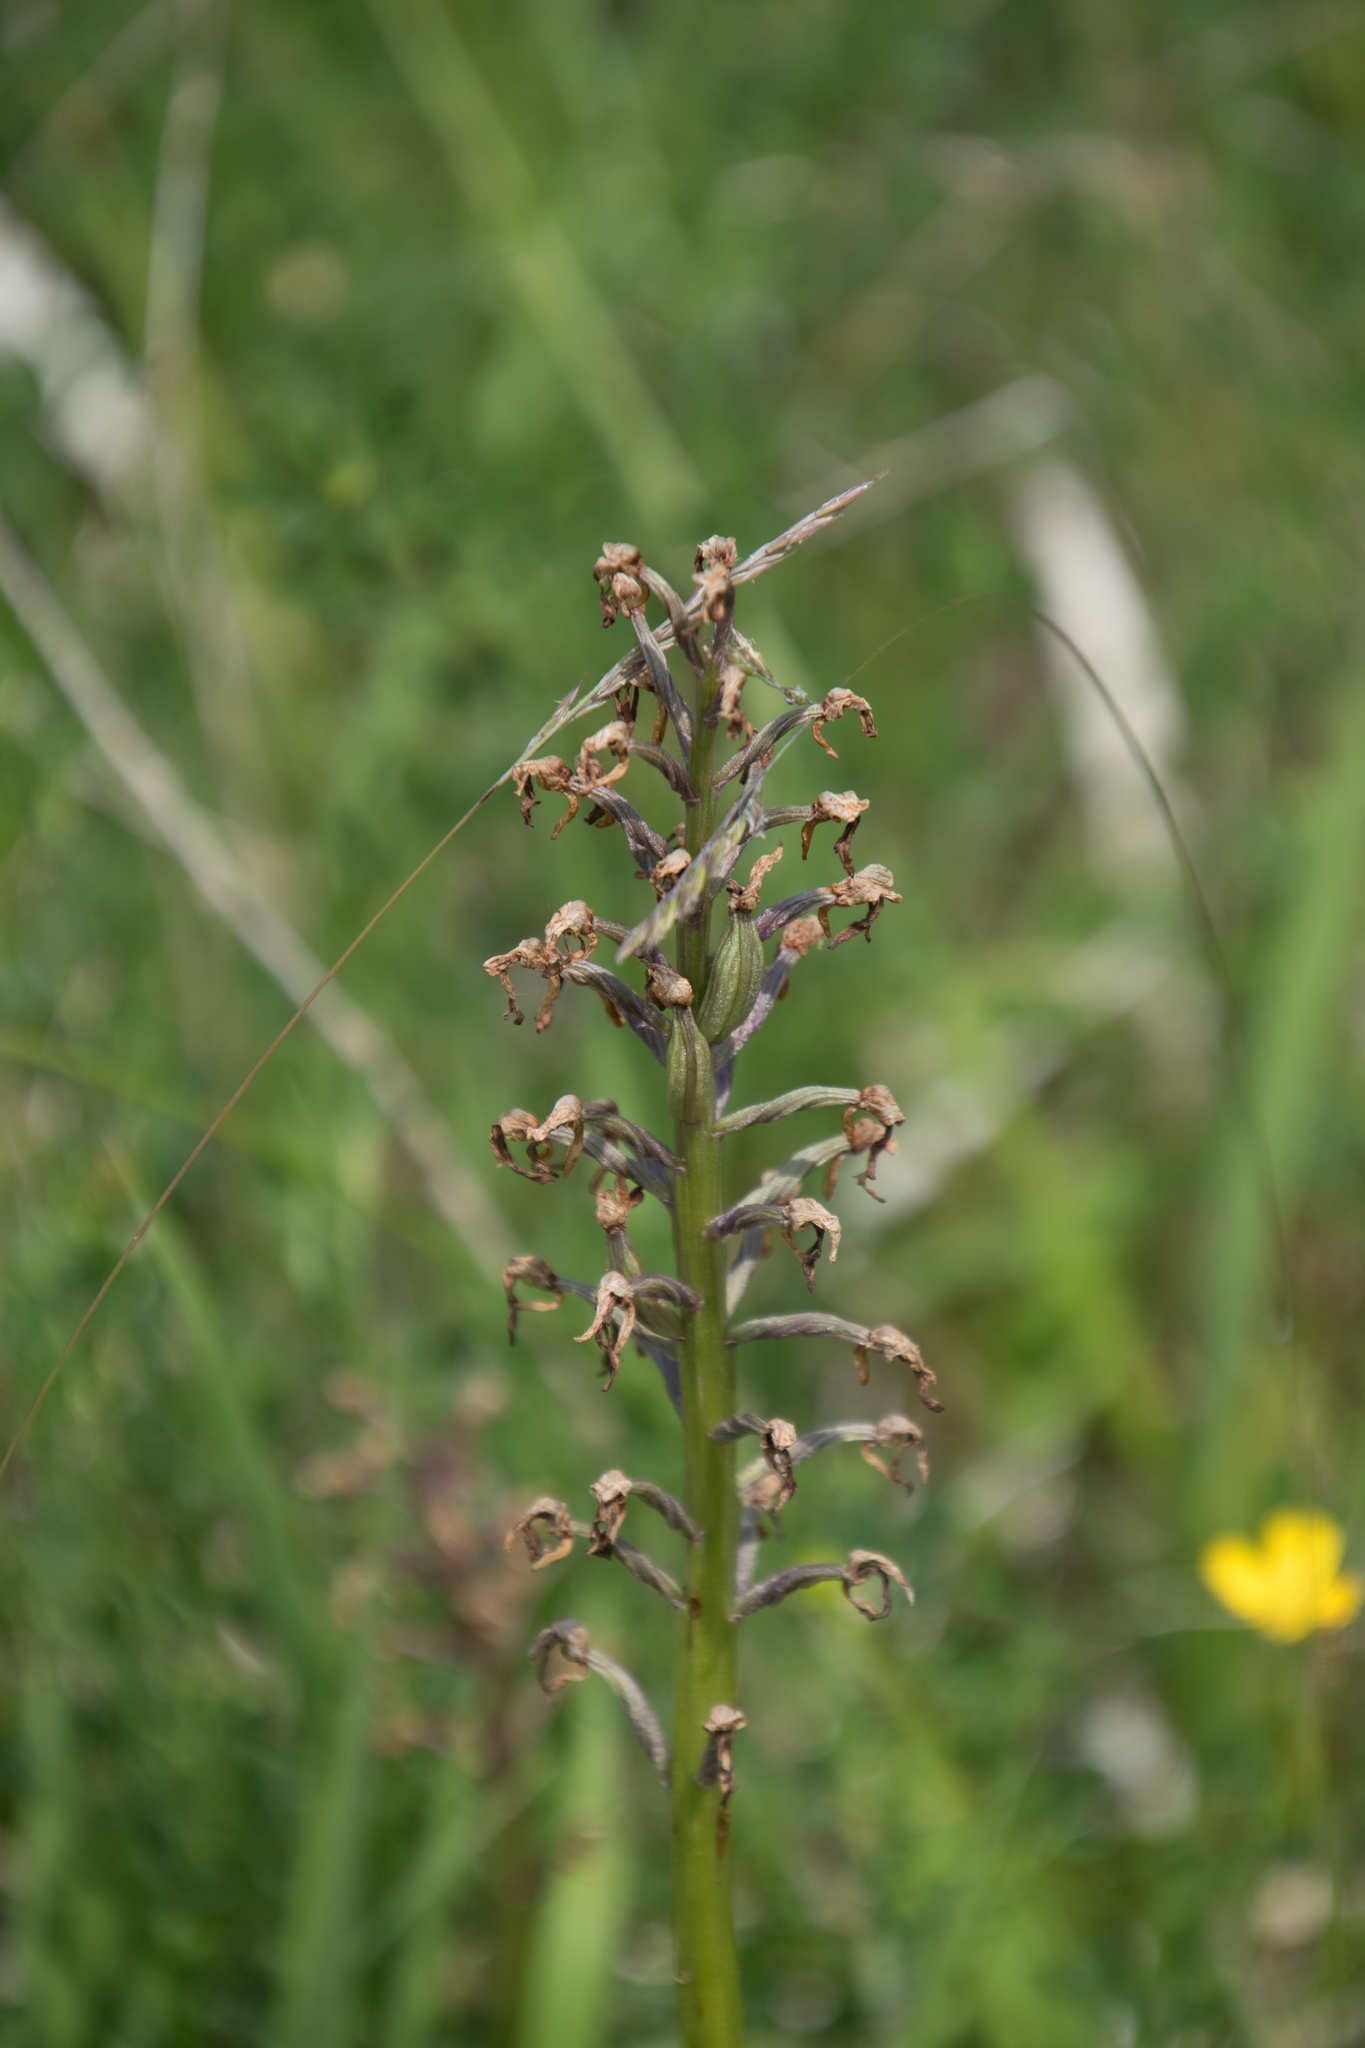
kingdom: Plantae
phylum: Tracheophyta
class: Liliopsida
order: Asparagales
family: Orchidaceae
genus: Orchis
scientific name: Orchis militaris
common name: Military orchid
